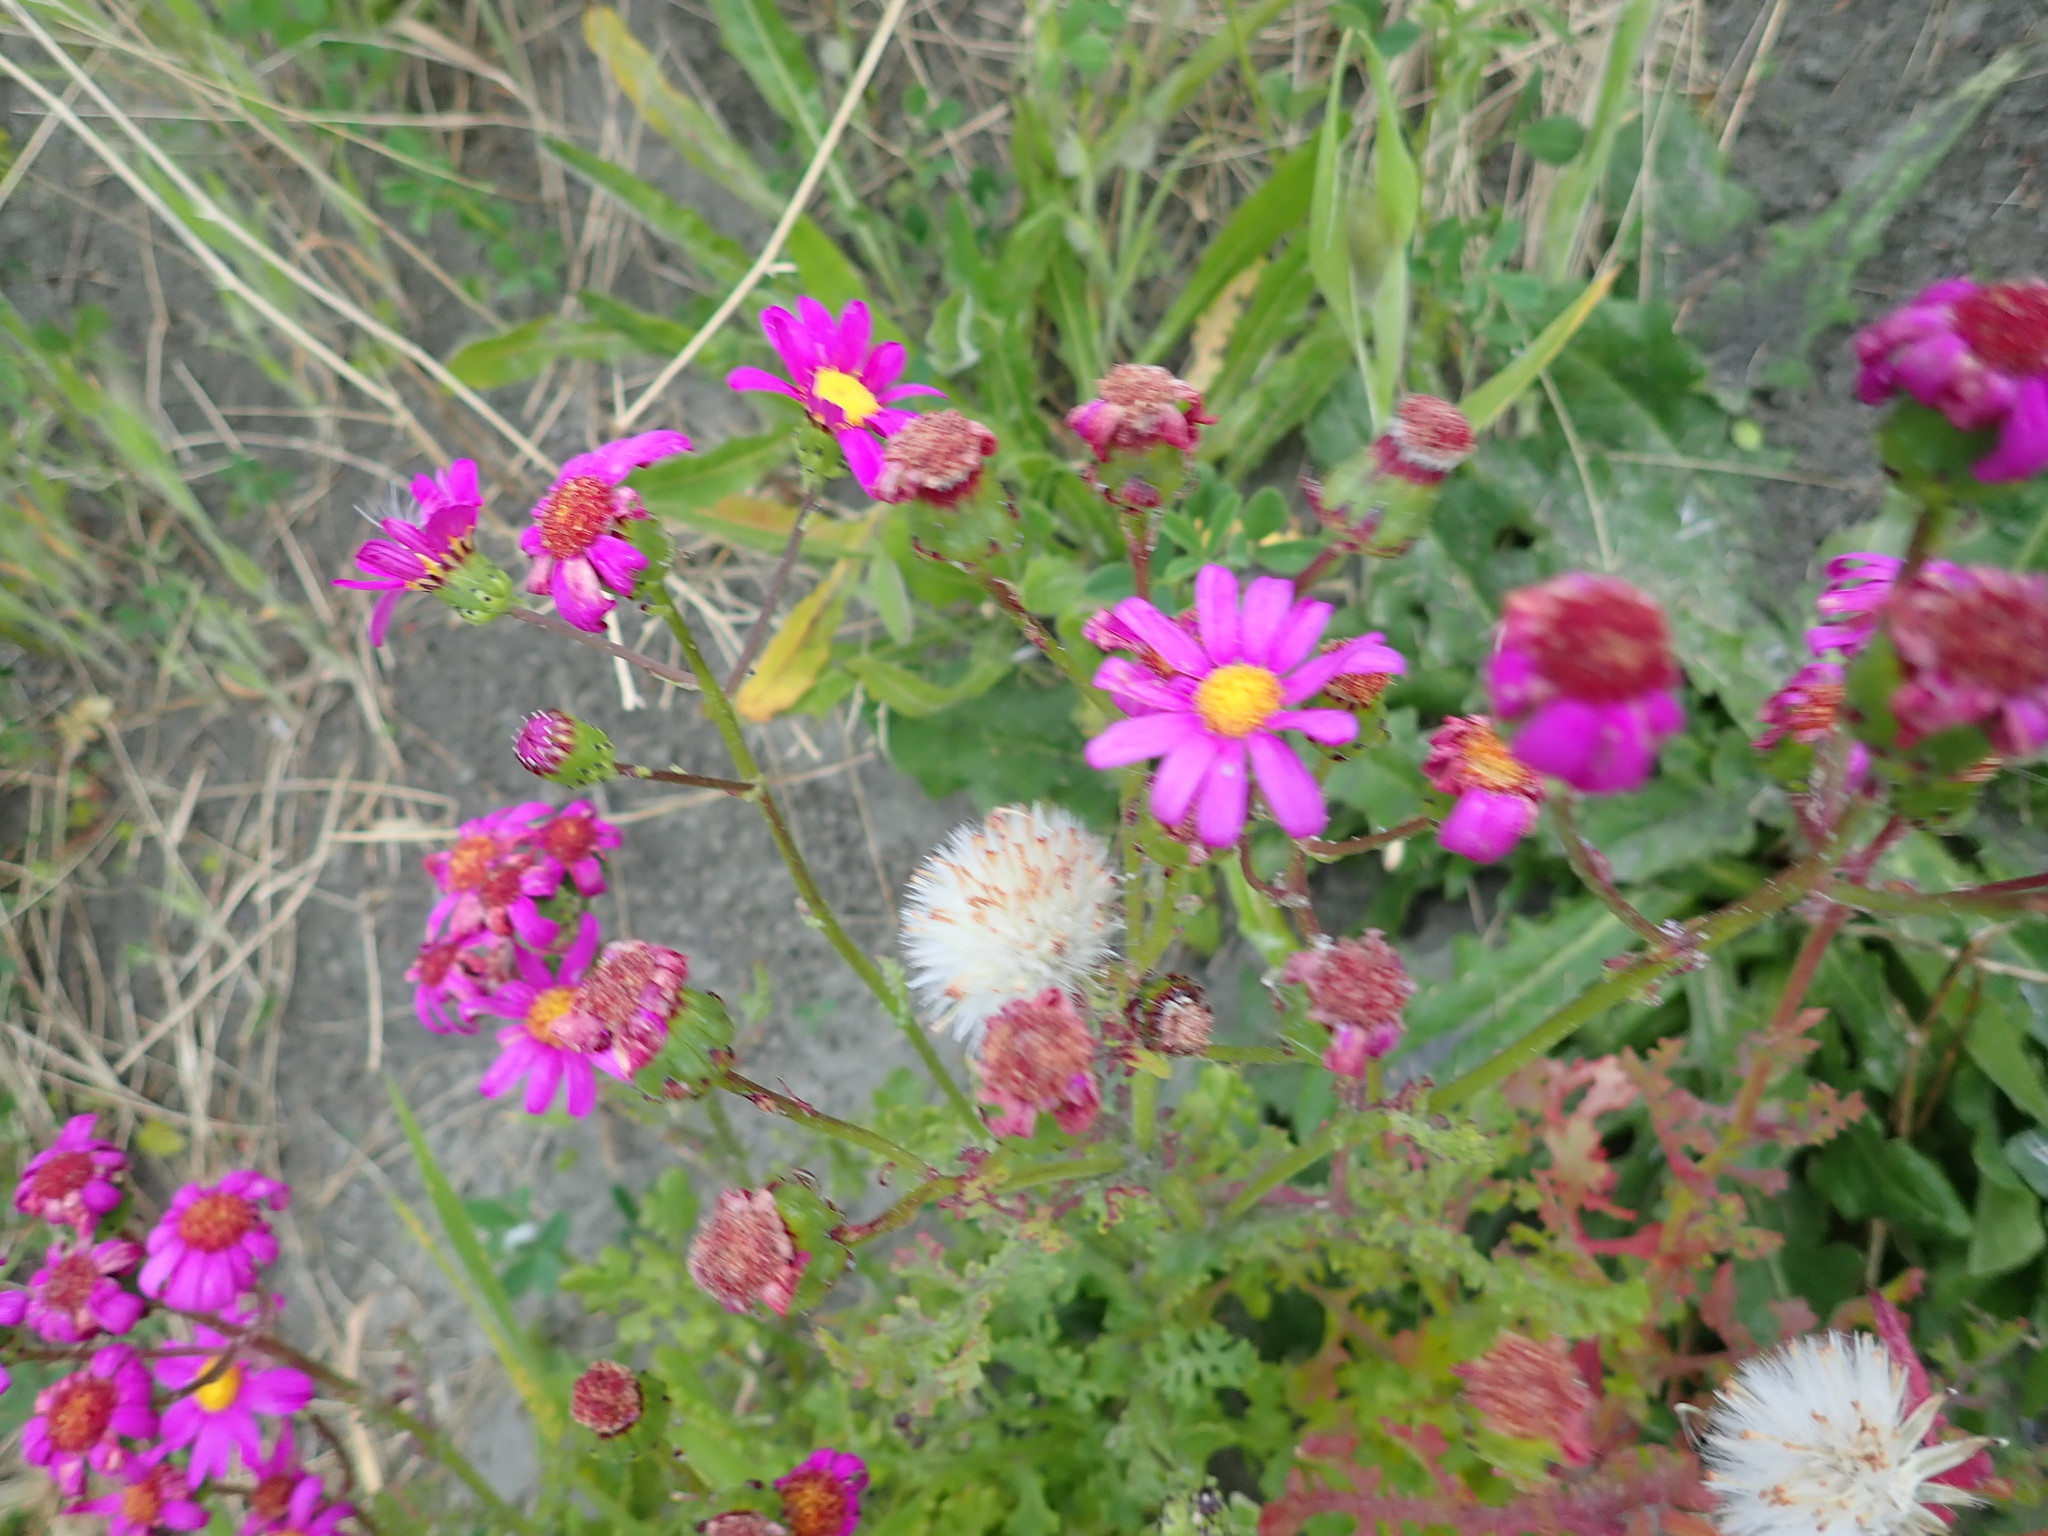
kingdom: Plantae
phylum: Tracheophyta
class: Magnoliopsida
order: Asterales
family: Asteraceae
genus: Senecio
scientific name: Senecio elegans
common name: Purple groundsel
